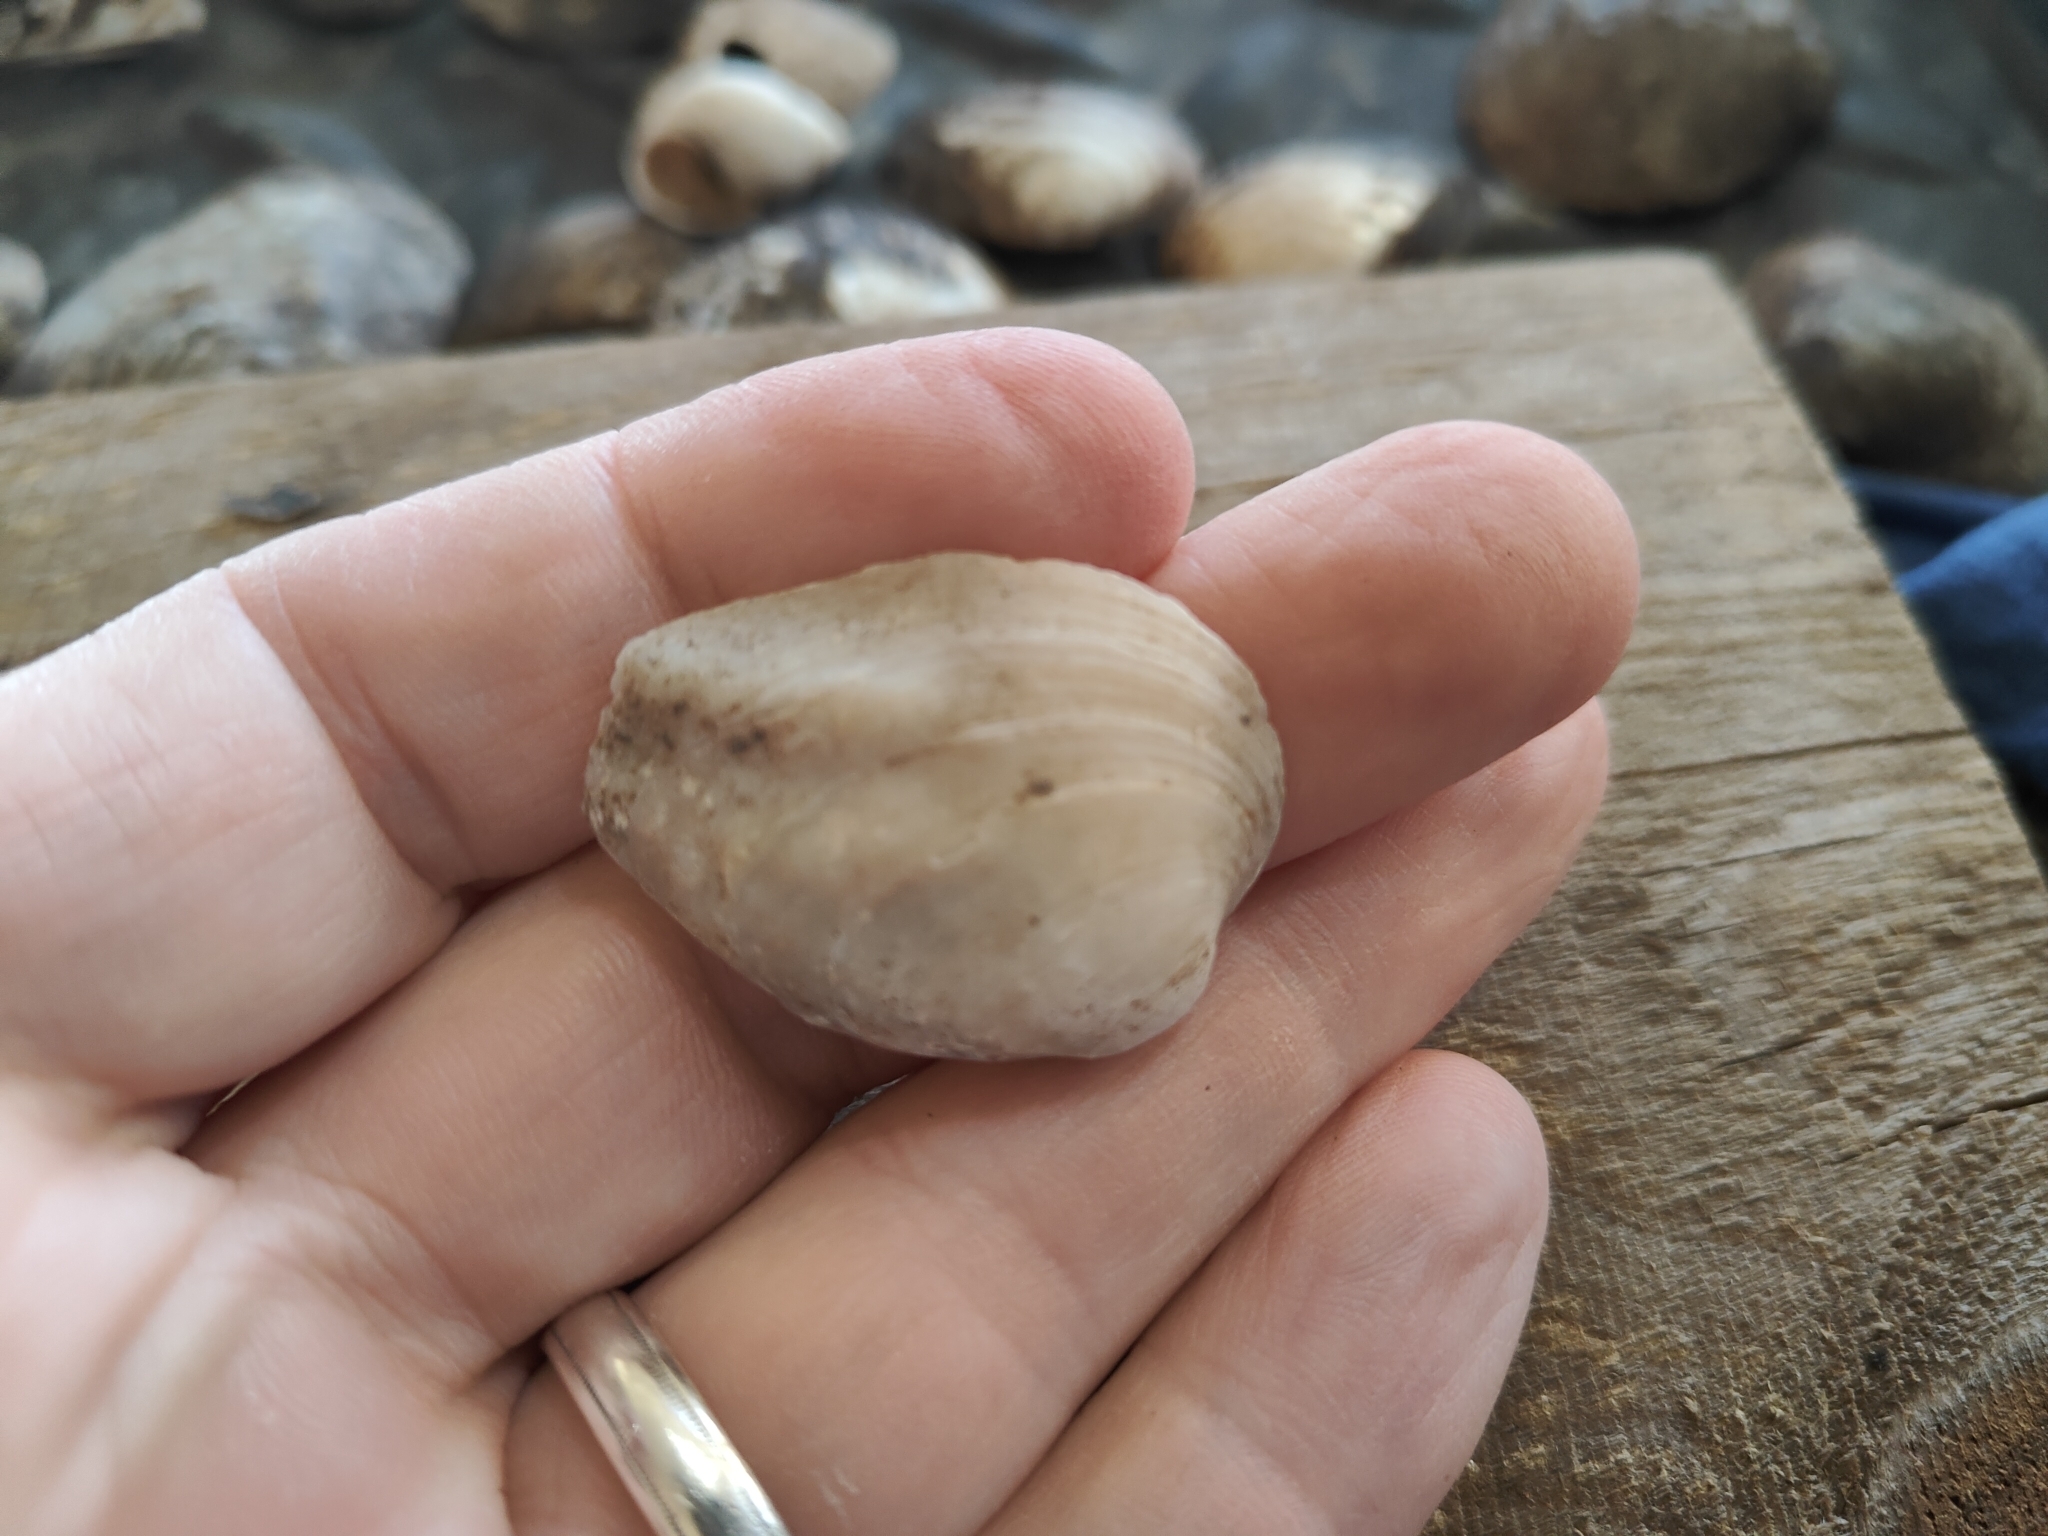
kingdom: Animalia
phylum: Mollusca
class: Bivalvia
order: Unionida
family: Unionidae
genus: Amblema
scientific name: Amblema plicata
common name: Threeridge
